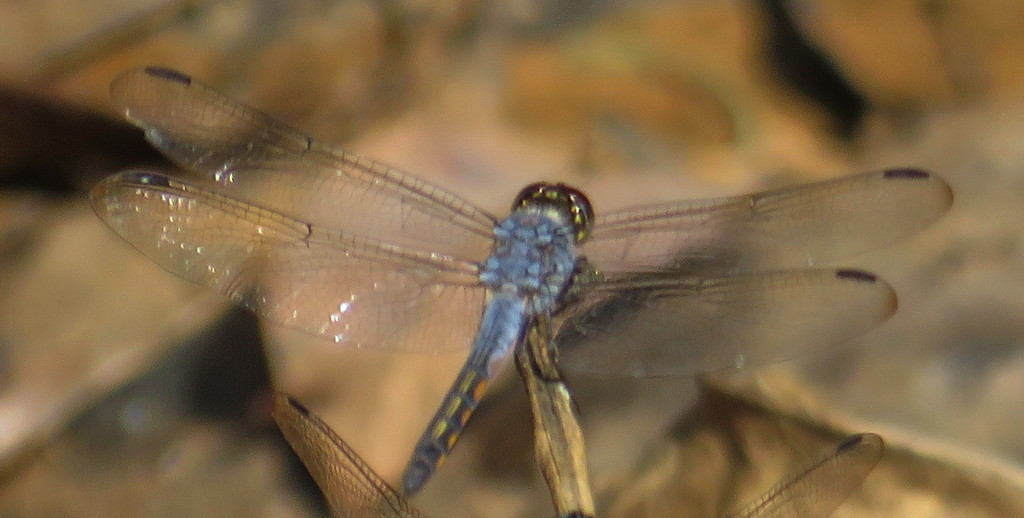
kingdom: Animalia
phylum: Arthropoda
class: Insecta
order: Odonata
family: Libellulidae
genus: Potamarcha
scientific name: Potamarcha congener
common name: Blue chaser
